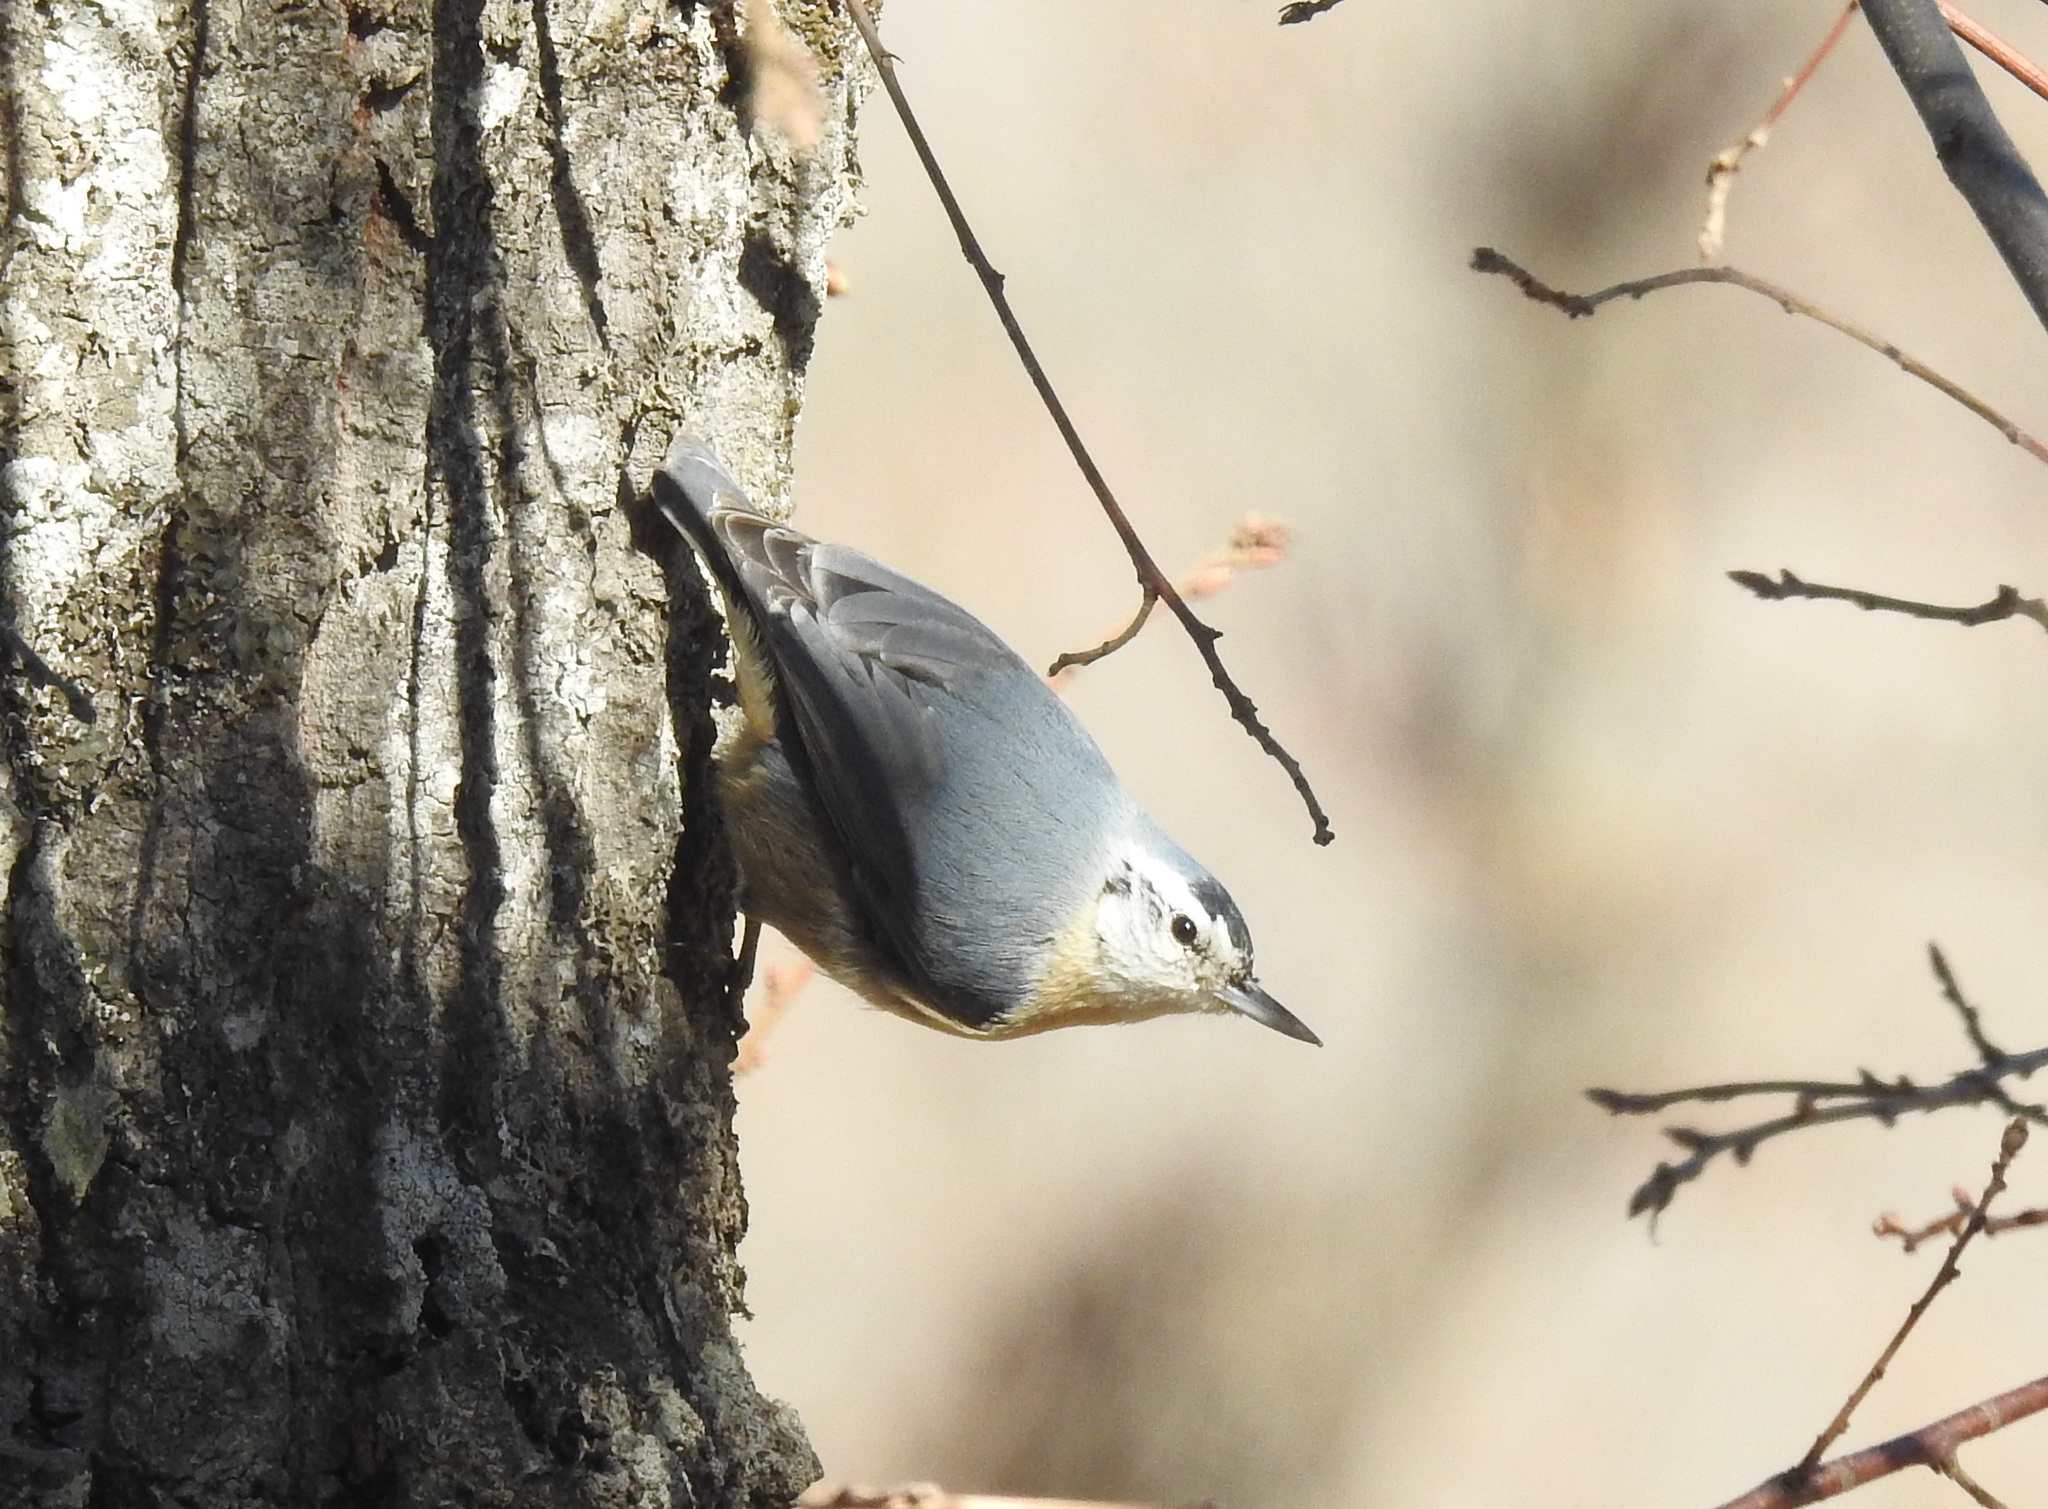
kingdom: Animalia
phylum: Chordata
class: Aves
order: Passeriformes
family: Sittidae
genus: Sitta
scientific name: Sitta ledanti
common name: Algerian nuthatch
